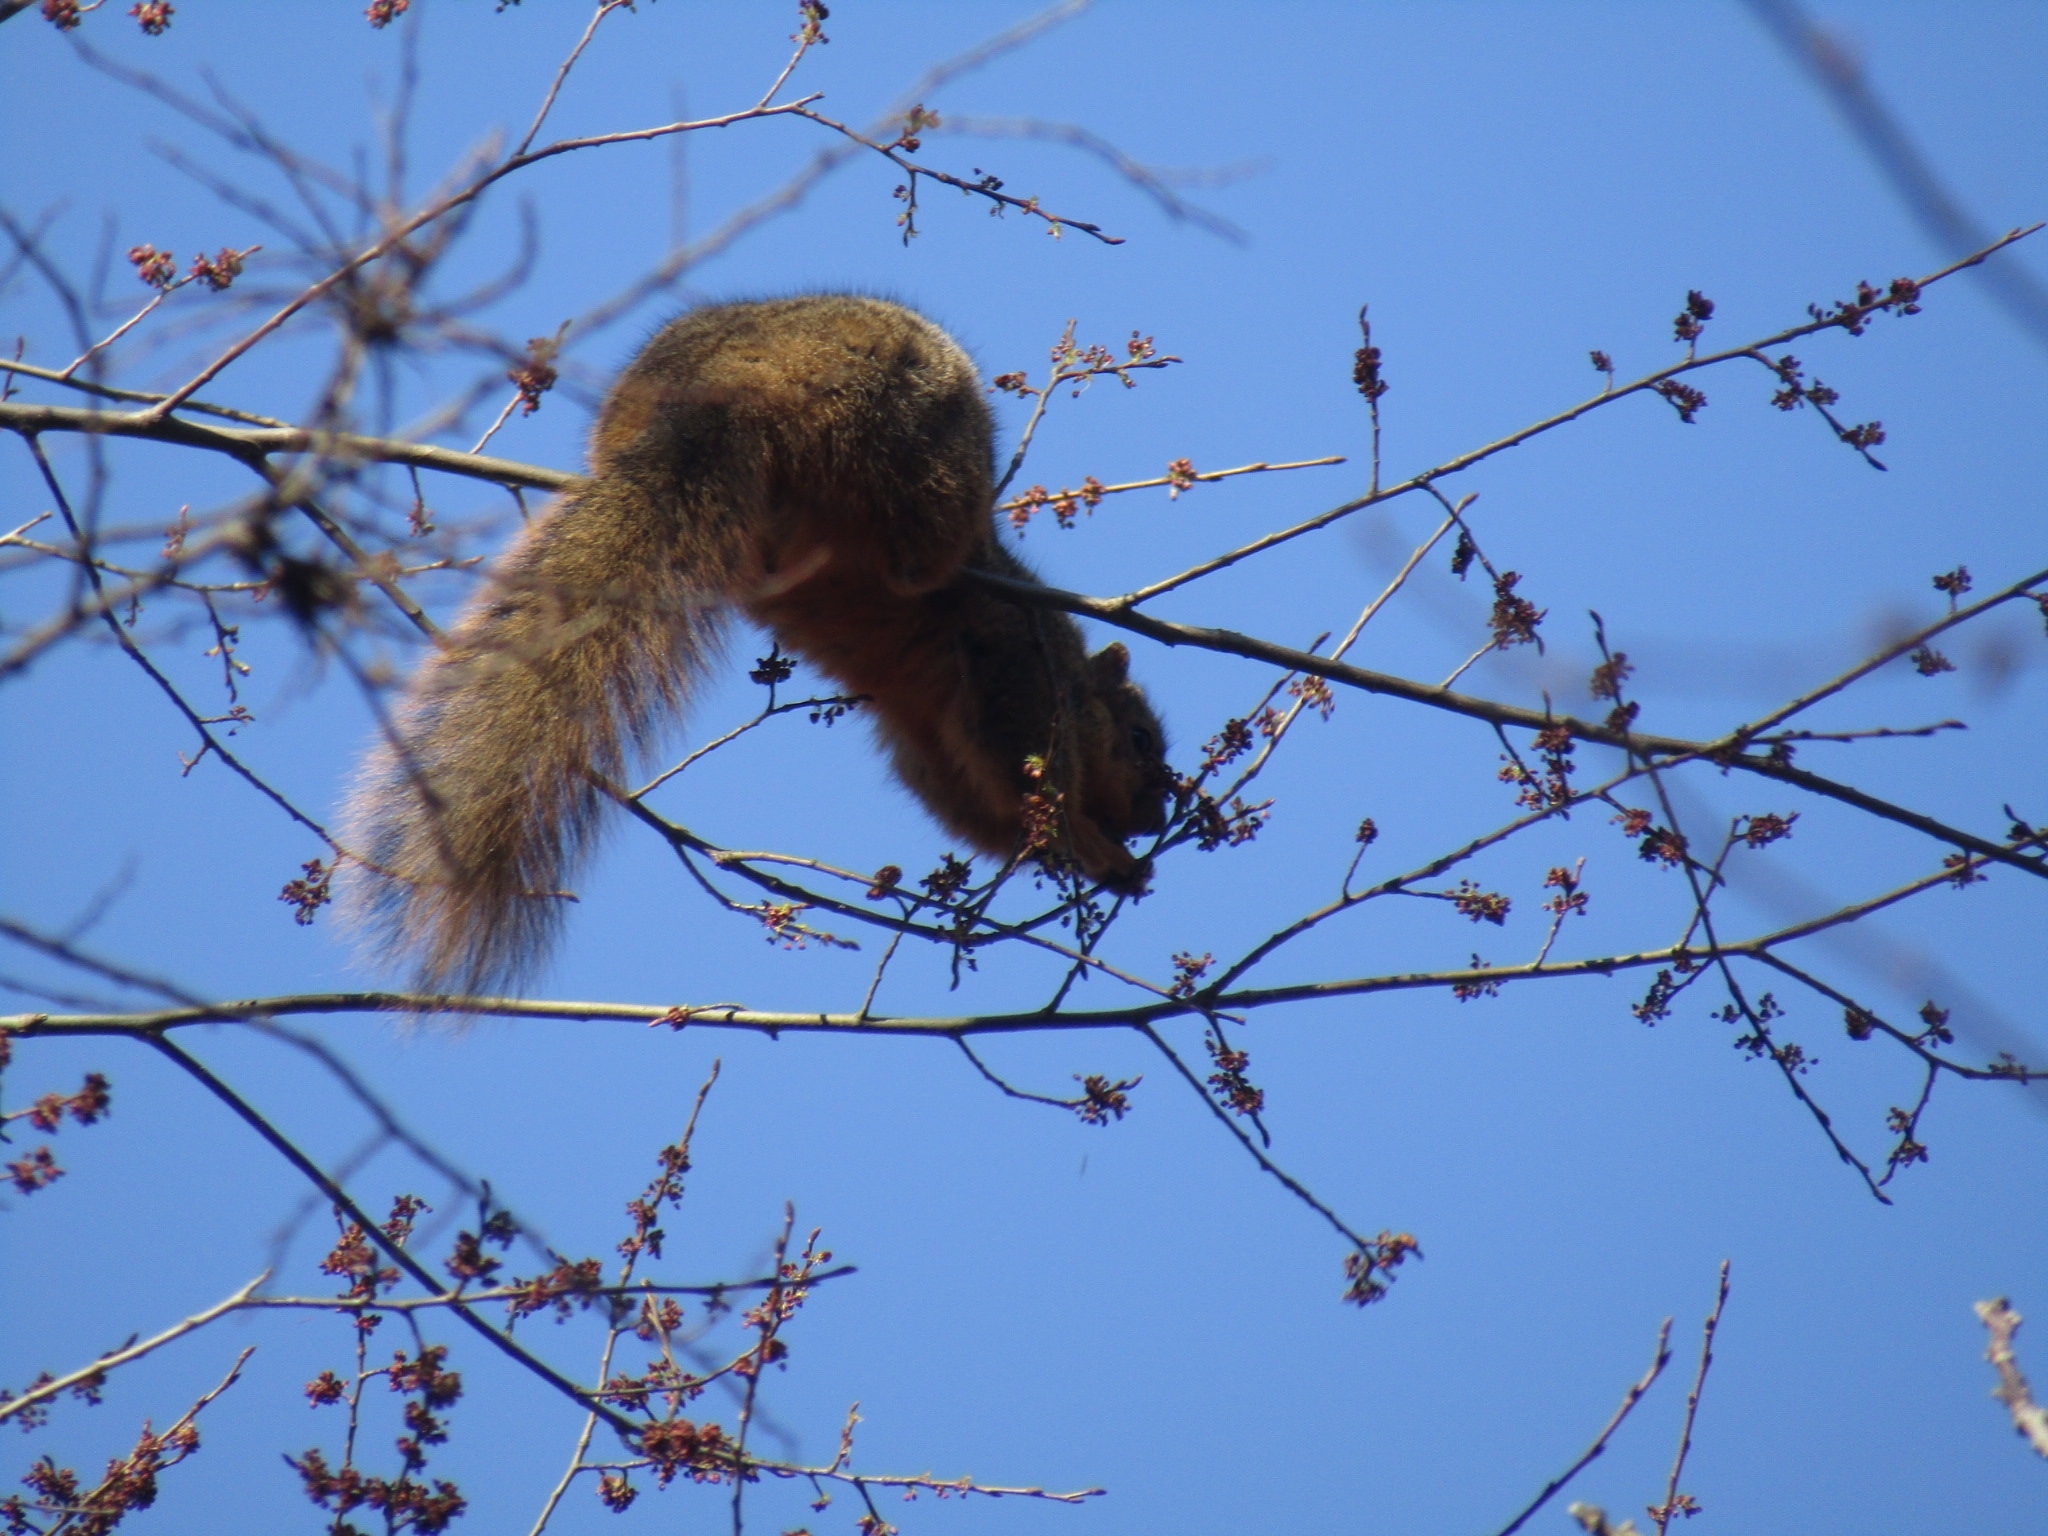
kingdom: Animalia
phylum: Chordata
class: Mammalia
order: Rodentia
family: Sciuridae
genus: Sciurus
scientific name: Sciurus niger
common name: Fox squirrel
